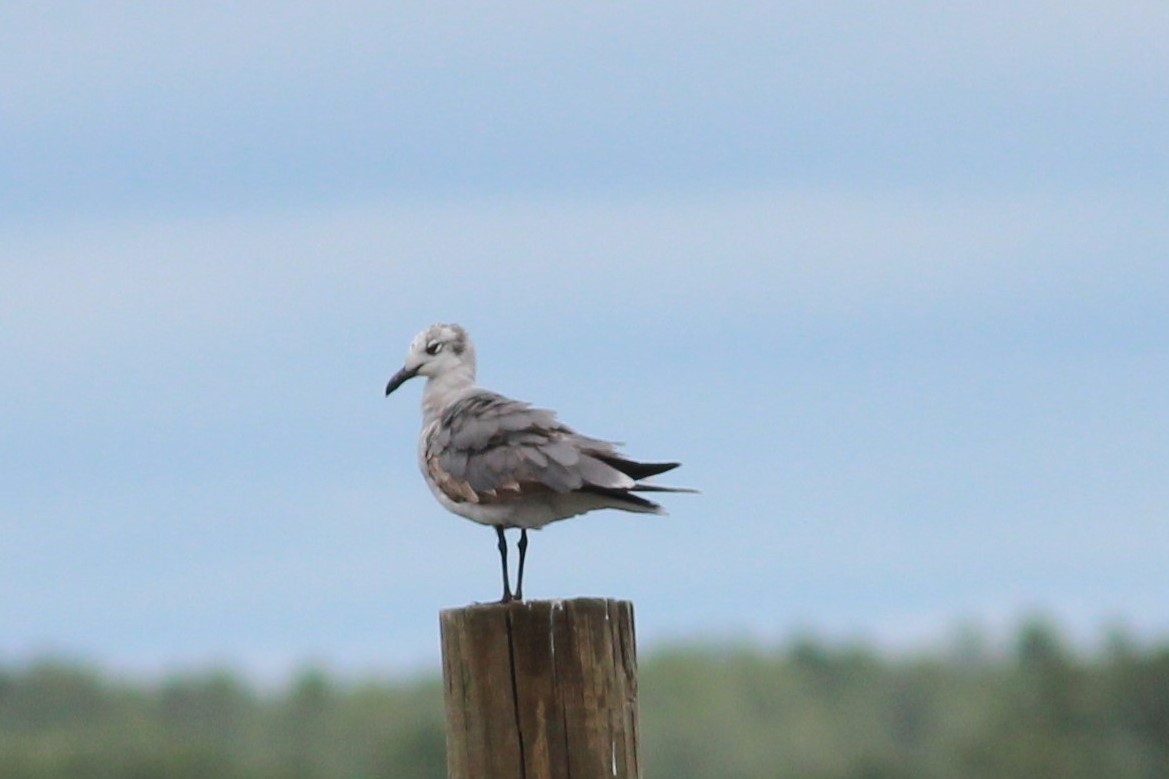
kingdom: Animalia
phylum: Chordata
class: Aves
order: Charadriiformes
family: Laridae
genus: Leucophaeus
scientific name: Leucophaeus atricilla
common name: Laughing gull
